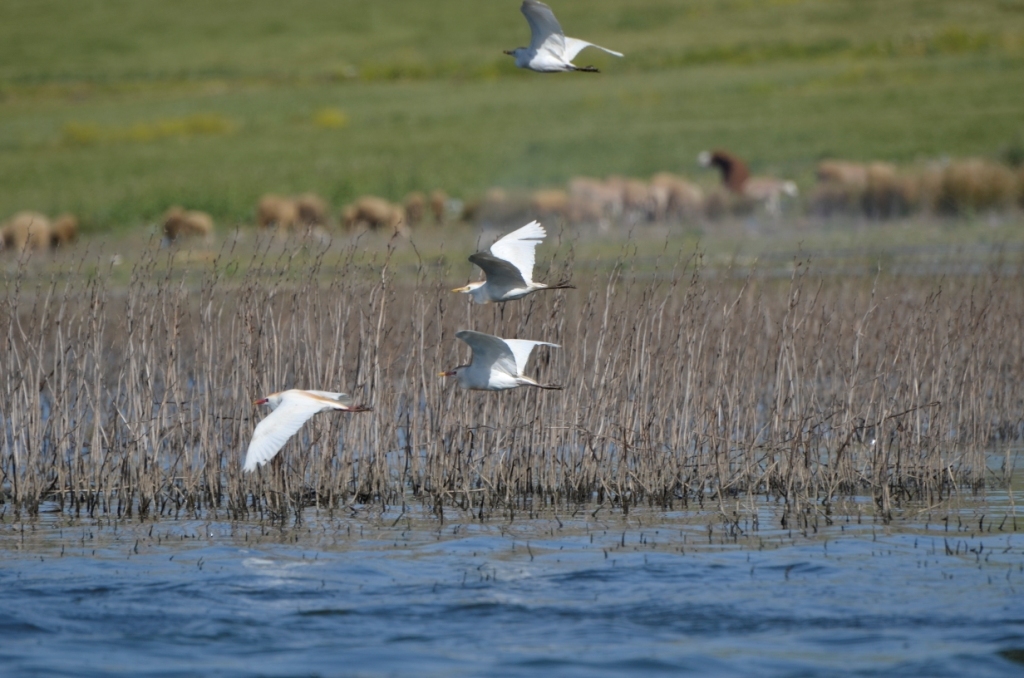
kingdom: Animalia
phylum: Chordata
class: Aves
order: Pelecaniformes
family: Ardeidae
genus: Bubulcus
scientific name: Bubulcus ibis
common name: Cattle egret
